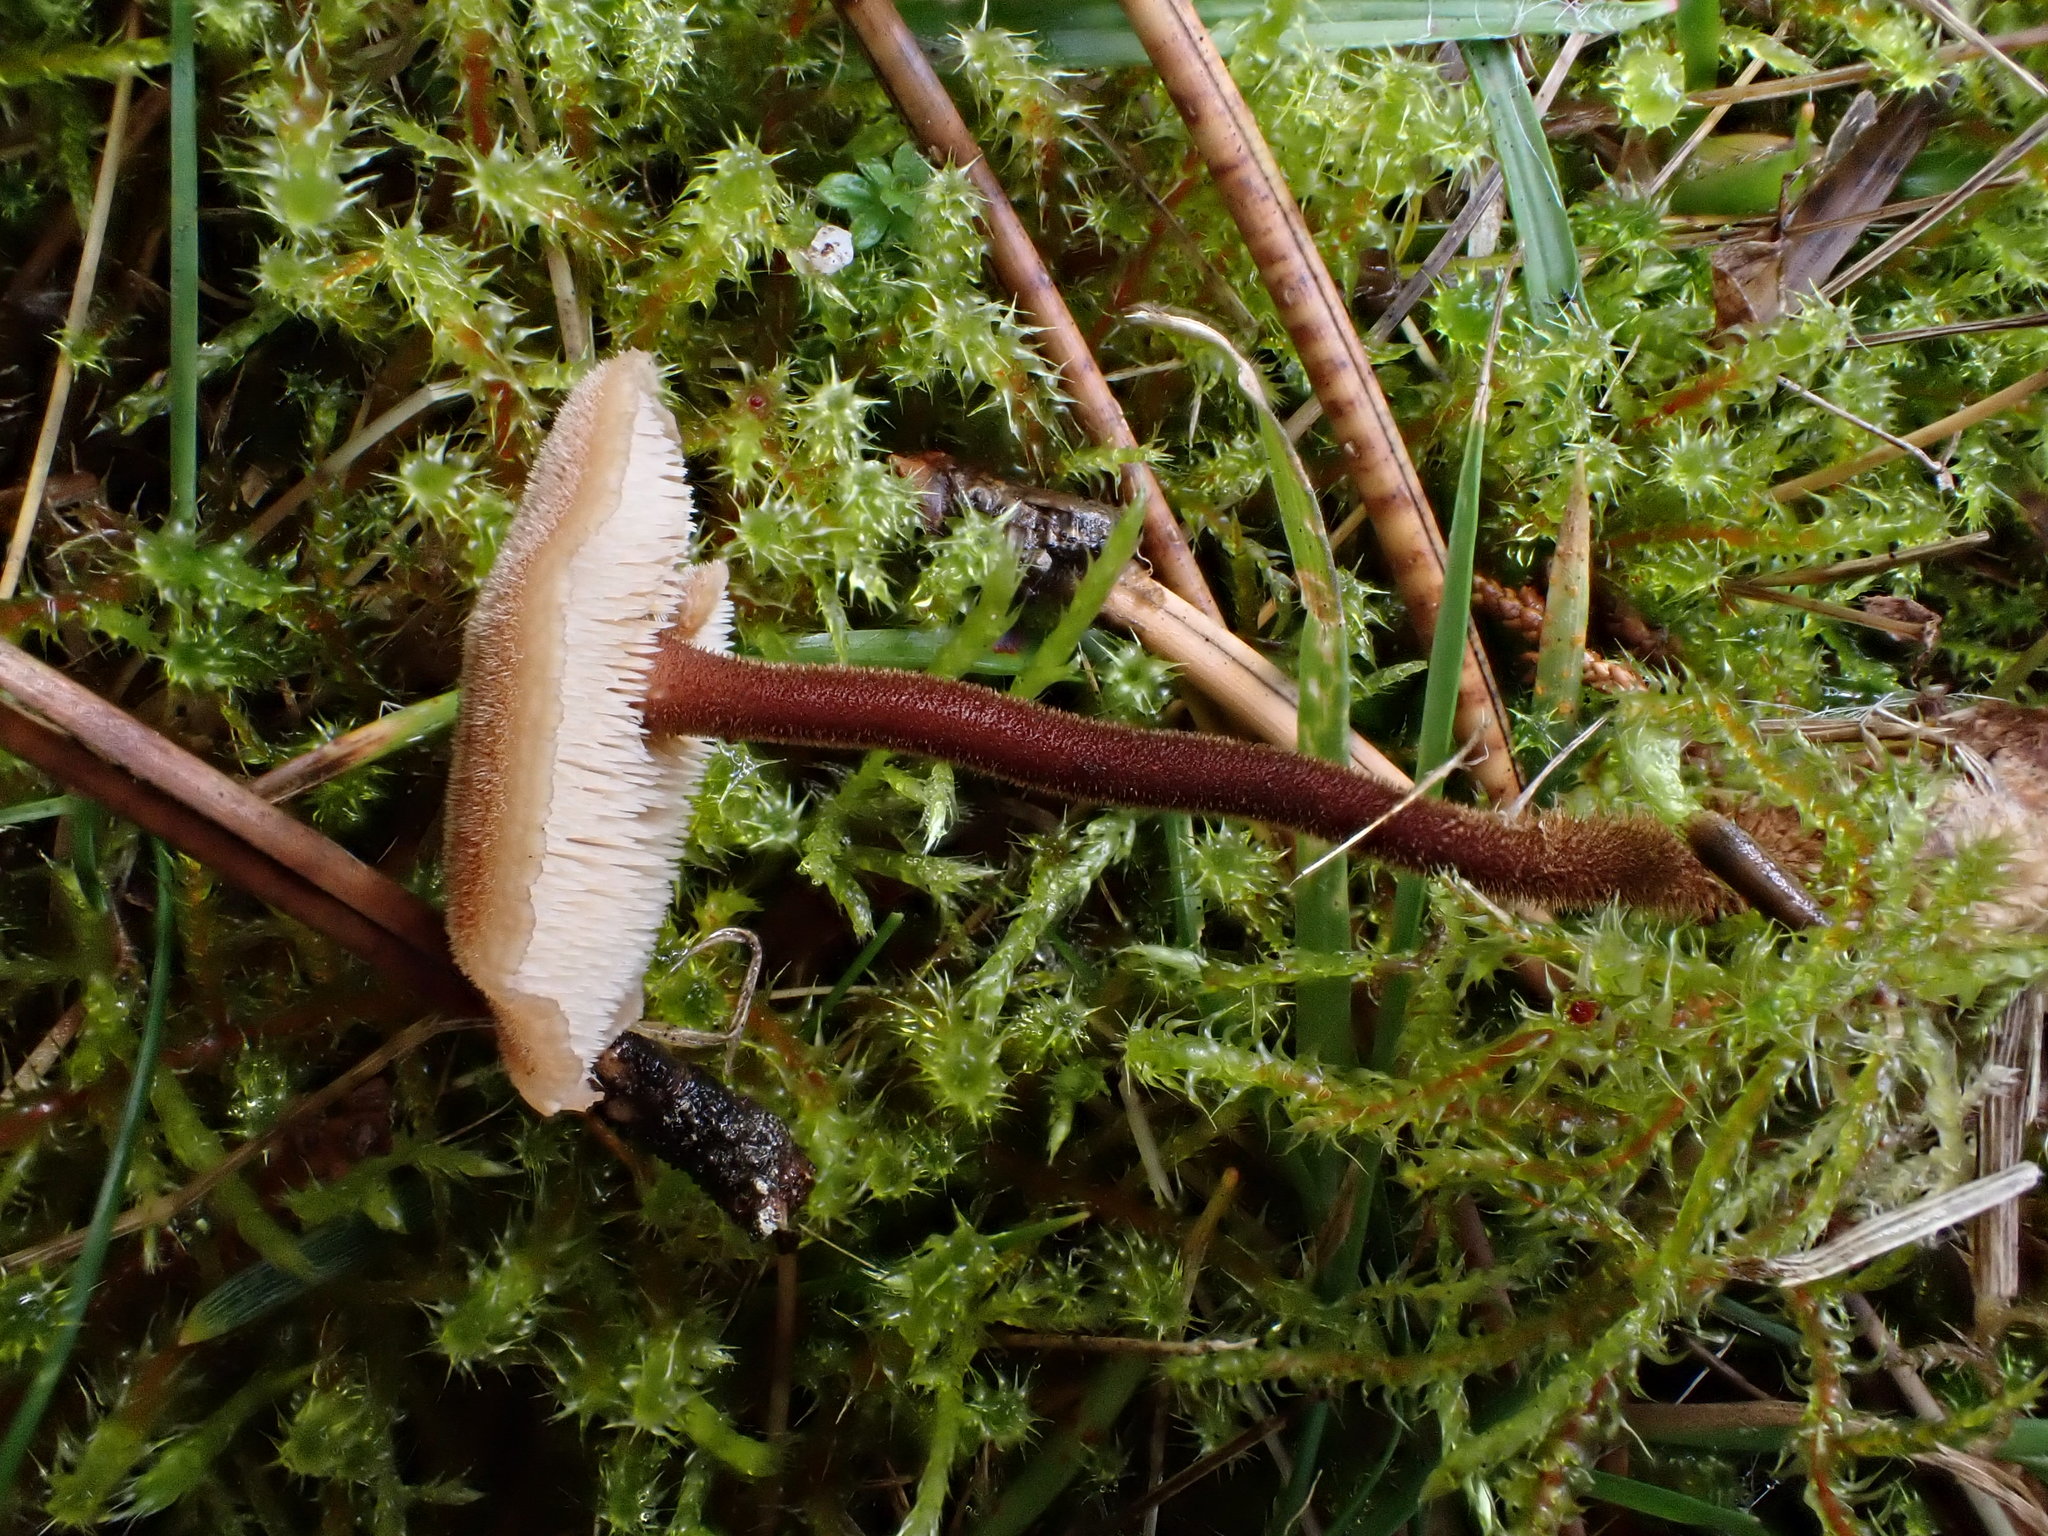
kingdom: Fungi
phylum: Basidiomycota
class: Agaricomycetes
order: Russulales
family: Auriscalpiaceae
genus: Auriscalpium
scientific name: Auriscalpium vulgare
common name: Earpick fungus
